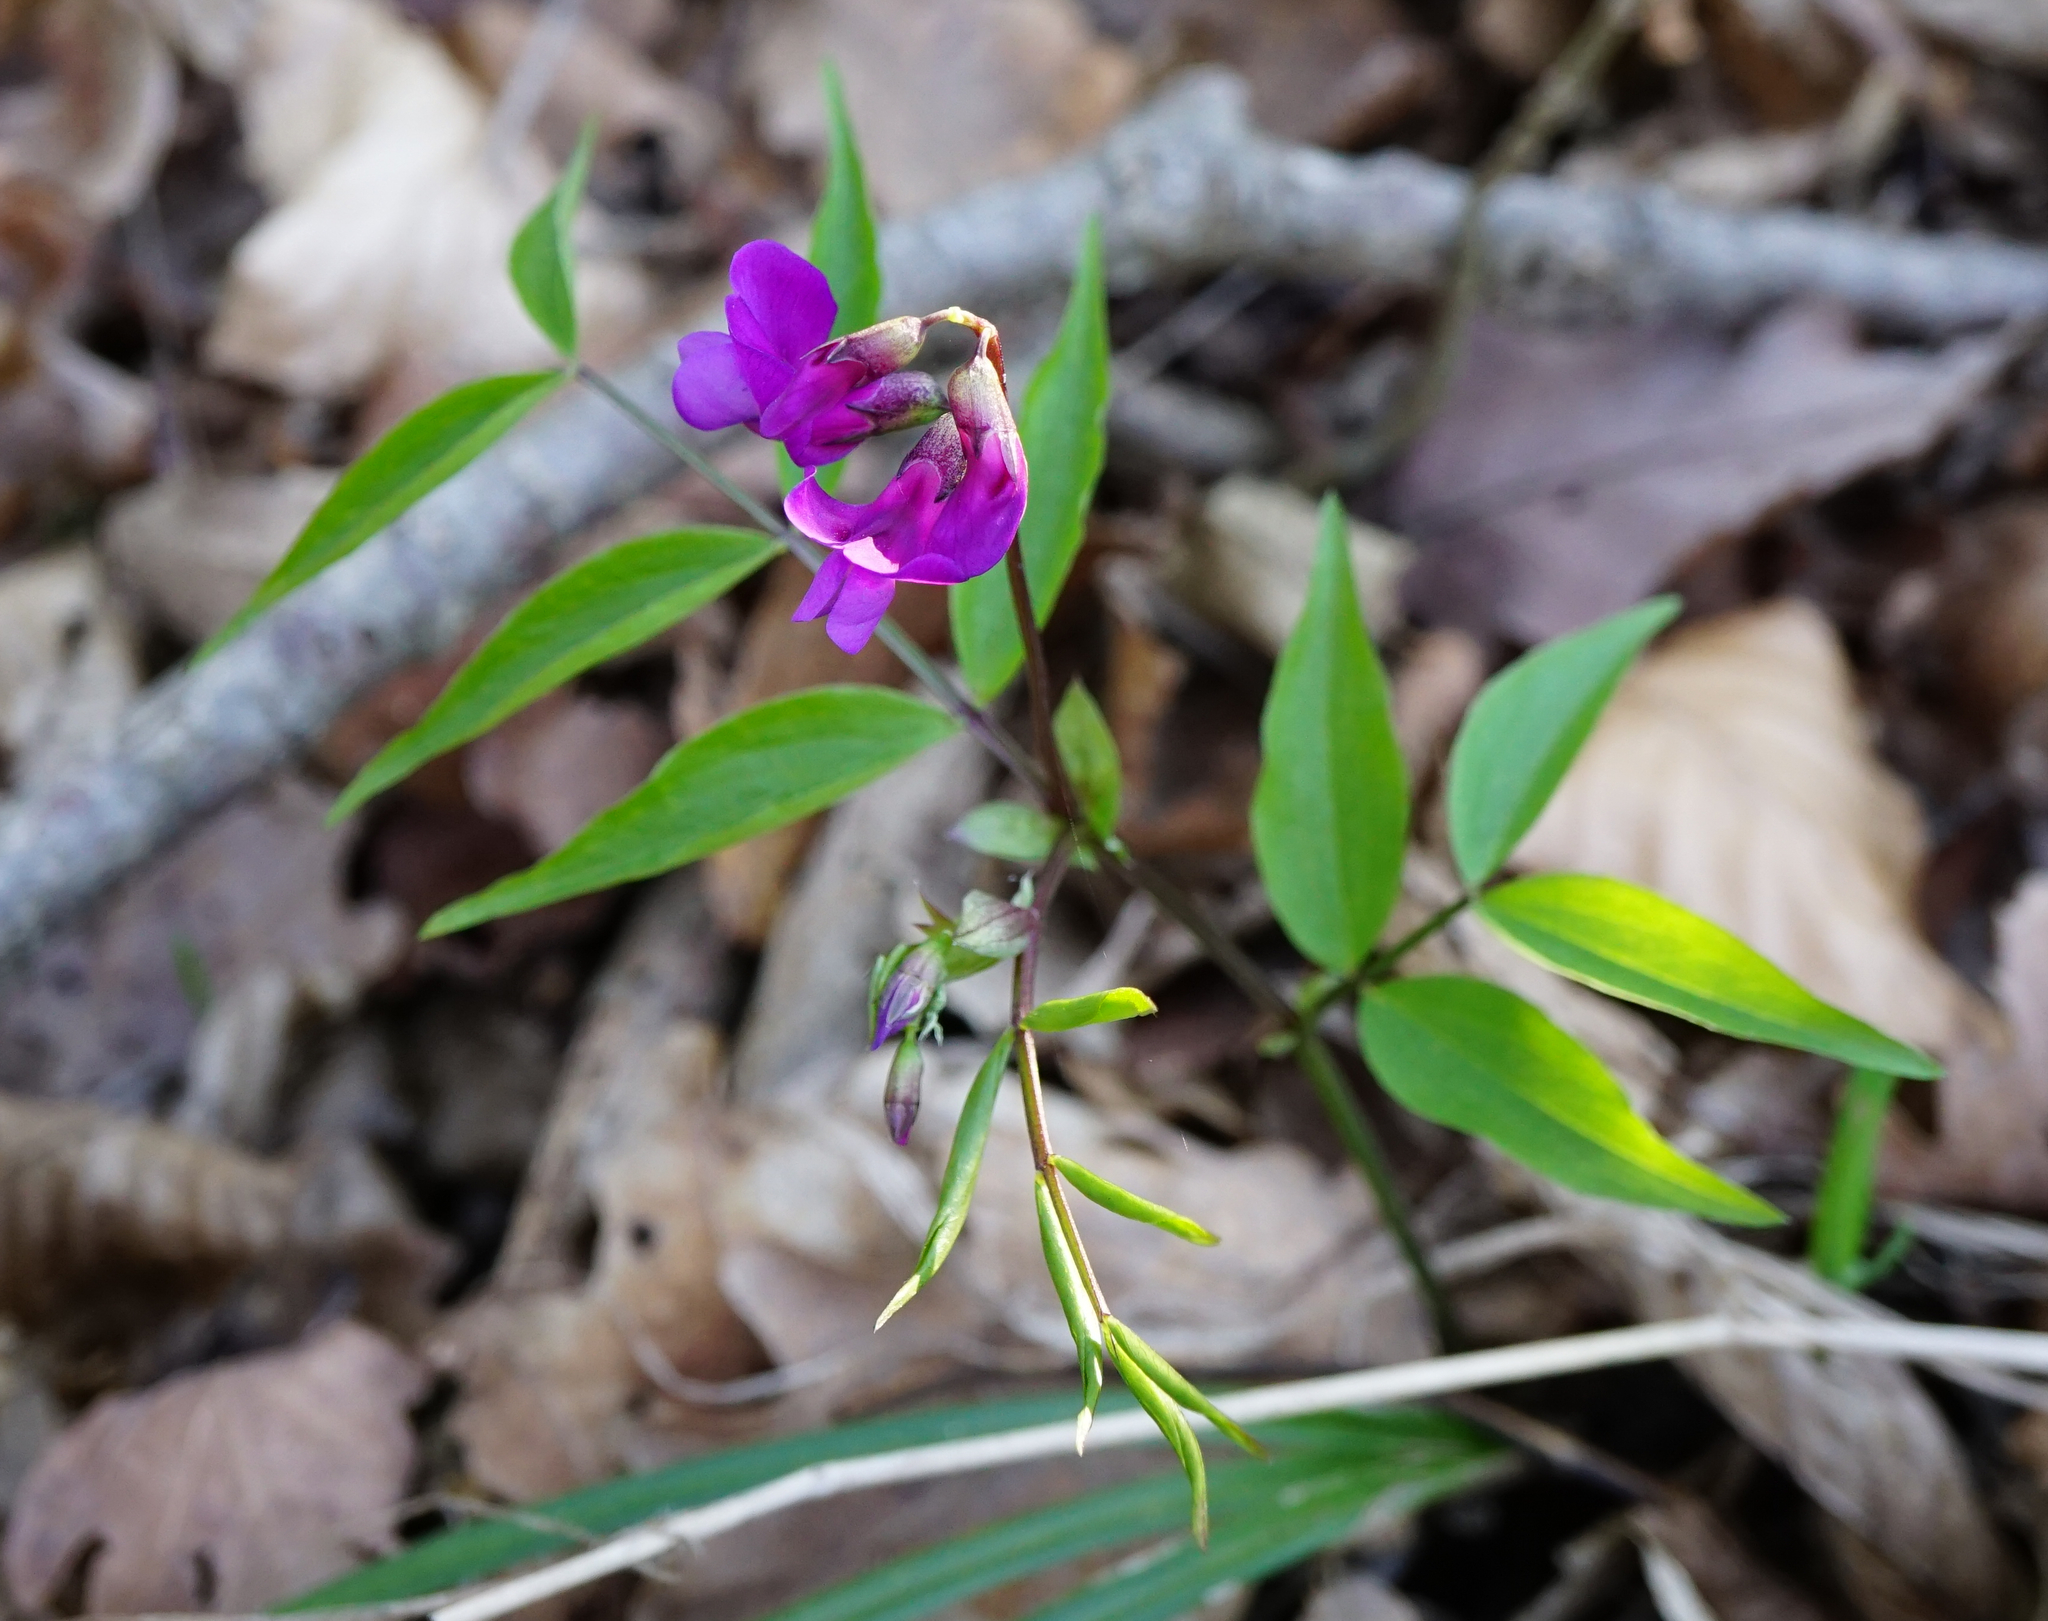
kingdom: Plantae
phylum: Tracheophyta
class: Magnoliopsida
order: Fabales
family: Fabaceae
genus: Lathyrus
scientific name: Lathyrus vernus
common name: Spring pea
